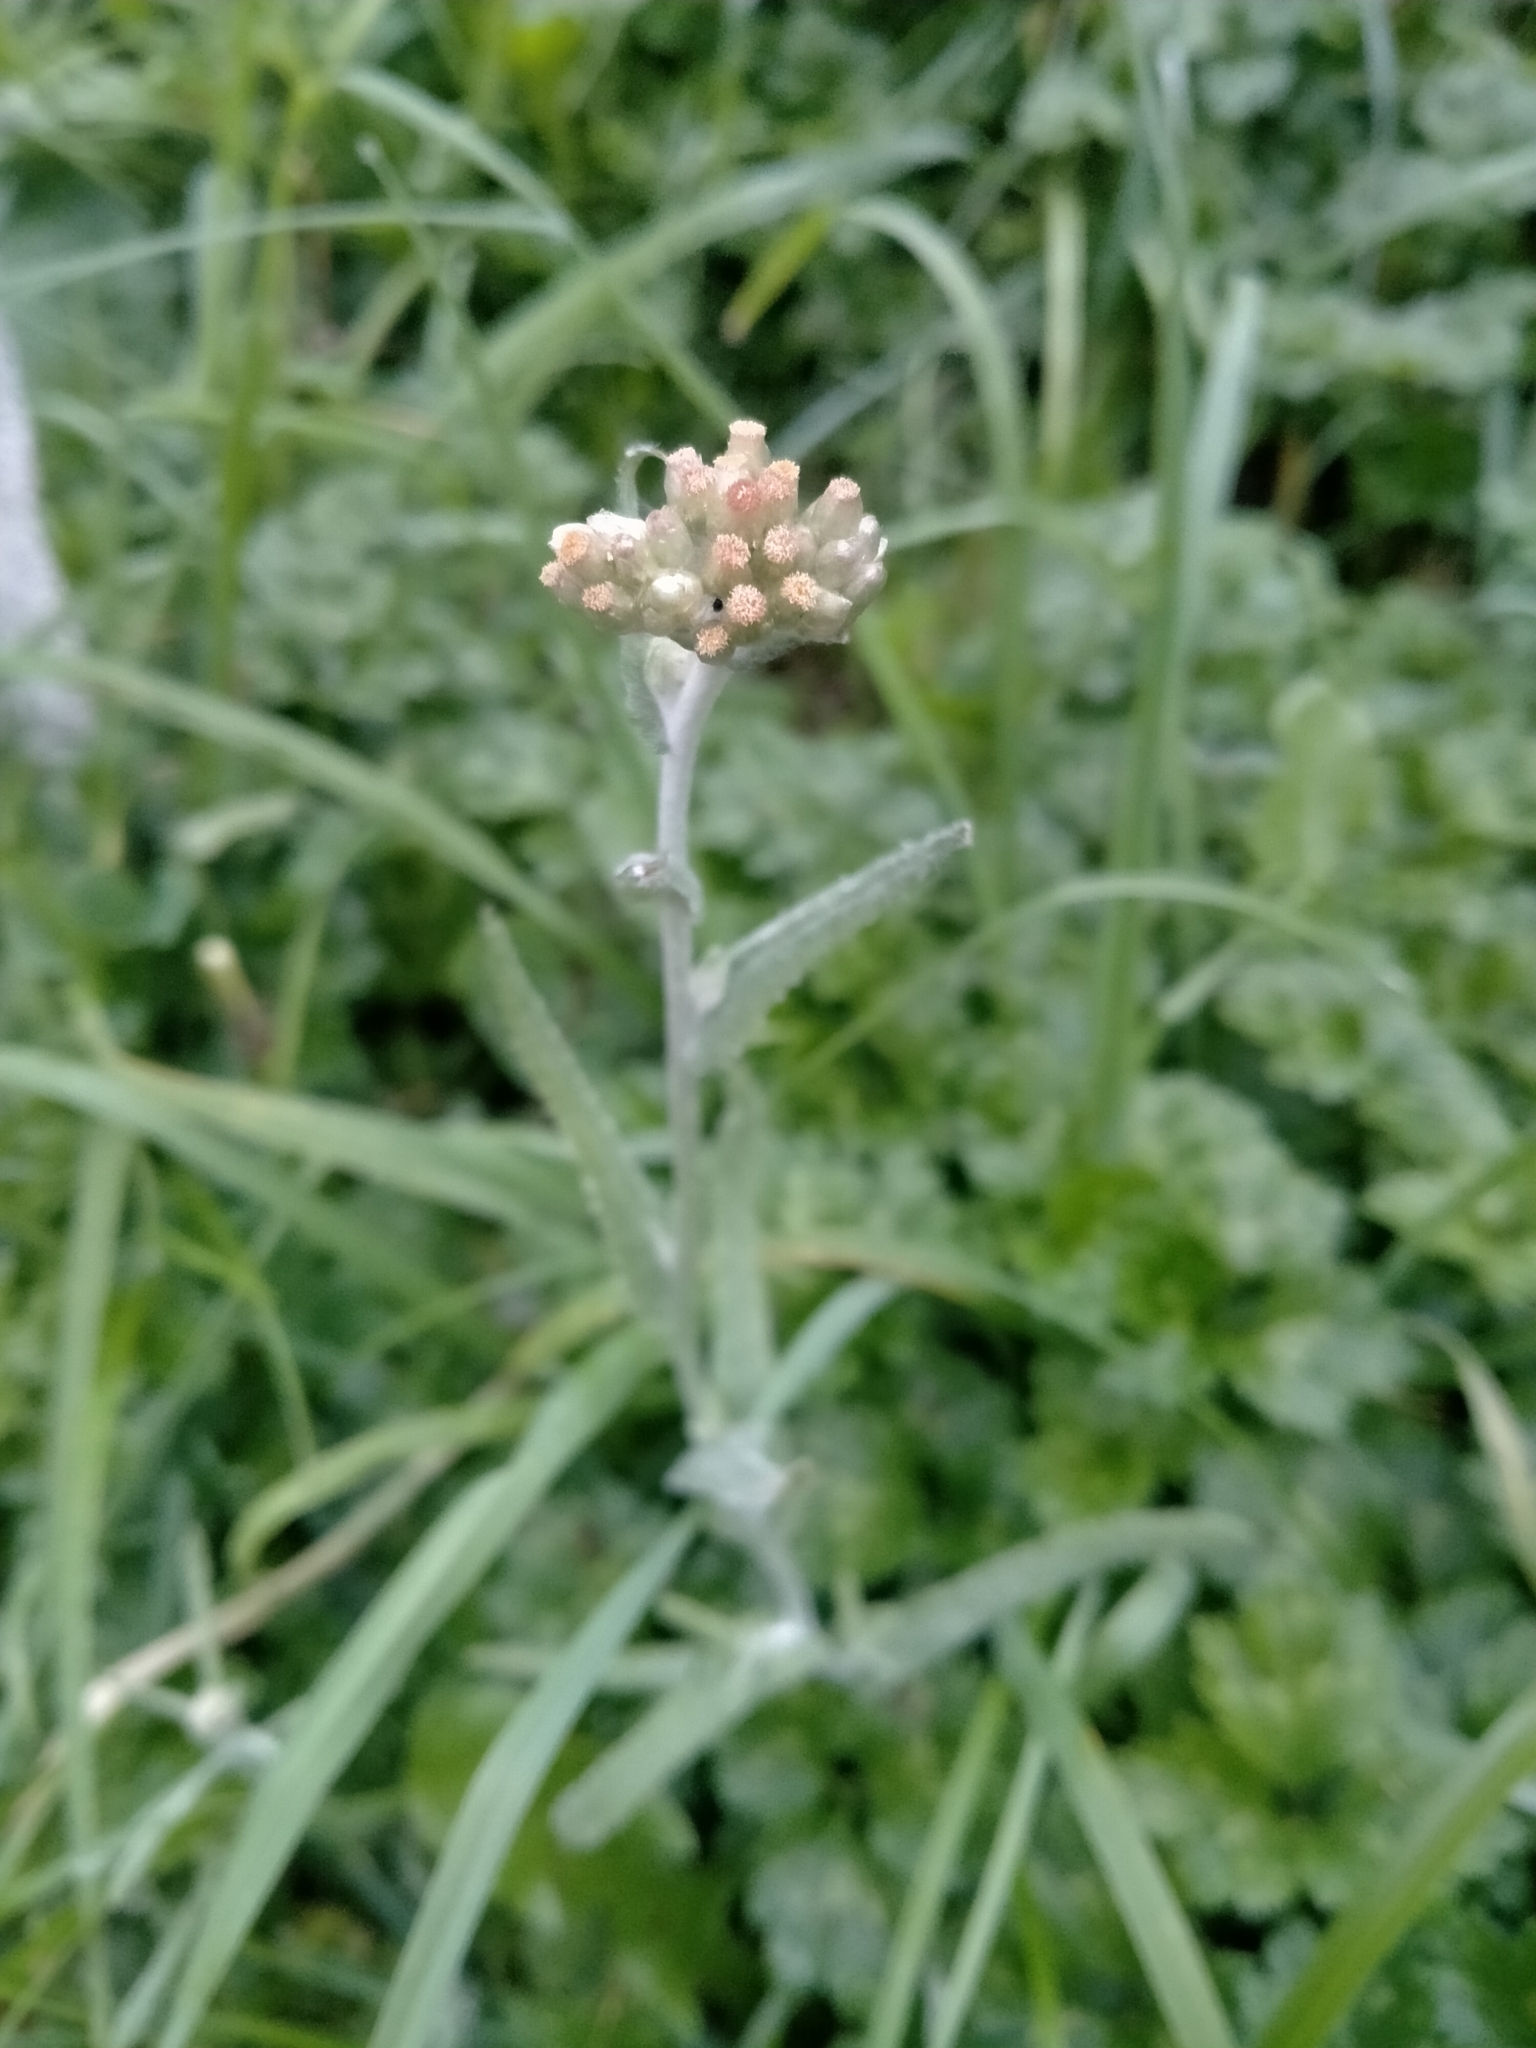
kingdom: Plantae
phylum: Tracheophyta
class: Magnoliopsida
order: Asterales
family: Asteraceae
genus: Helichrysum
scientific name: Helichrysum luteoalbum
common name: Daisy
